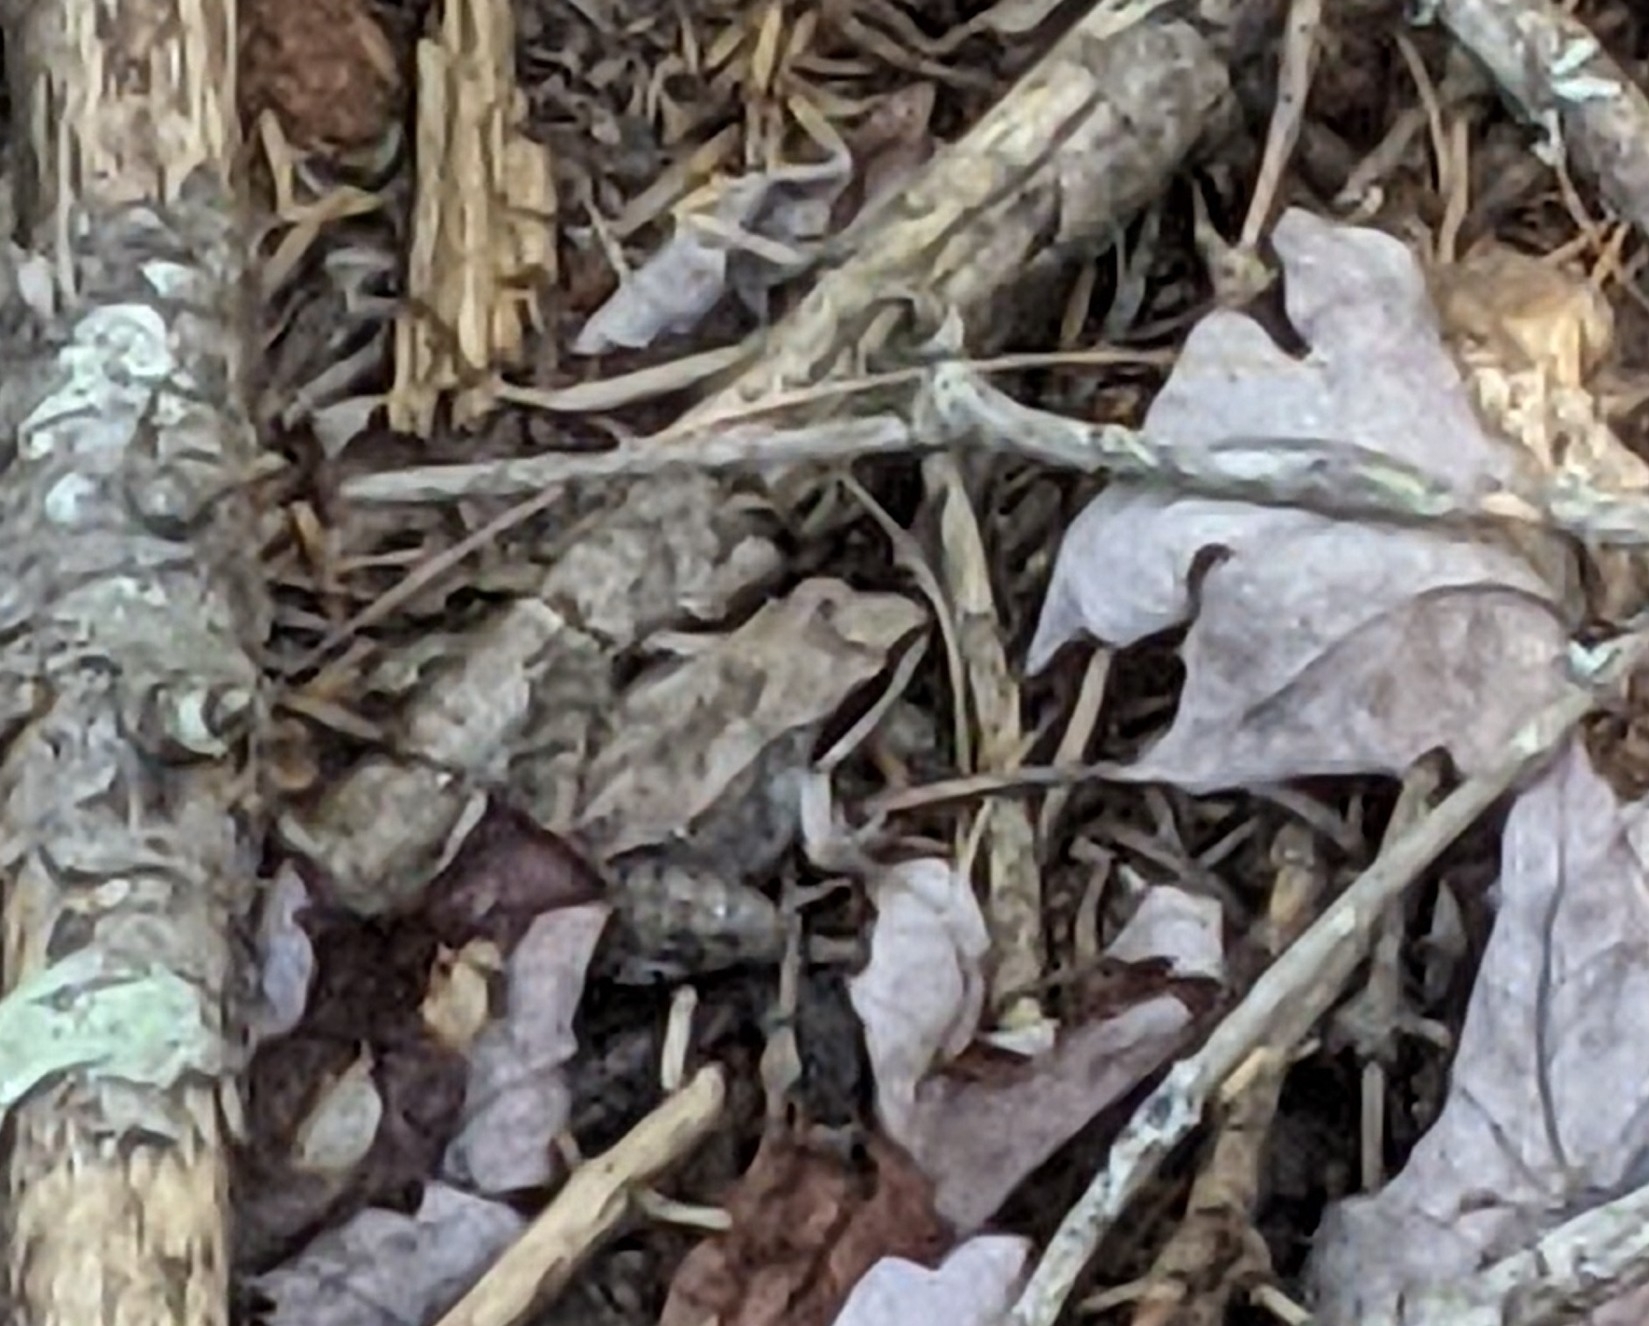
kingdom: Animalia
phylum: Chordata
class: Amphibia
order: Anura
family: Ranidae
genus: Lithobates
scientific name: Lithobates sylvaticus
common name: Wood frog
